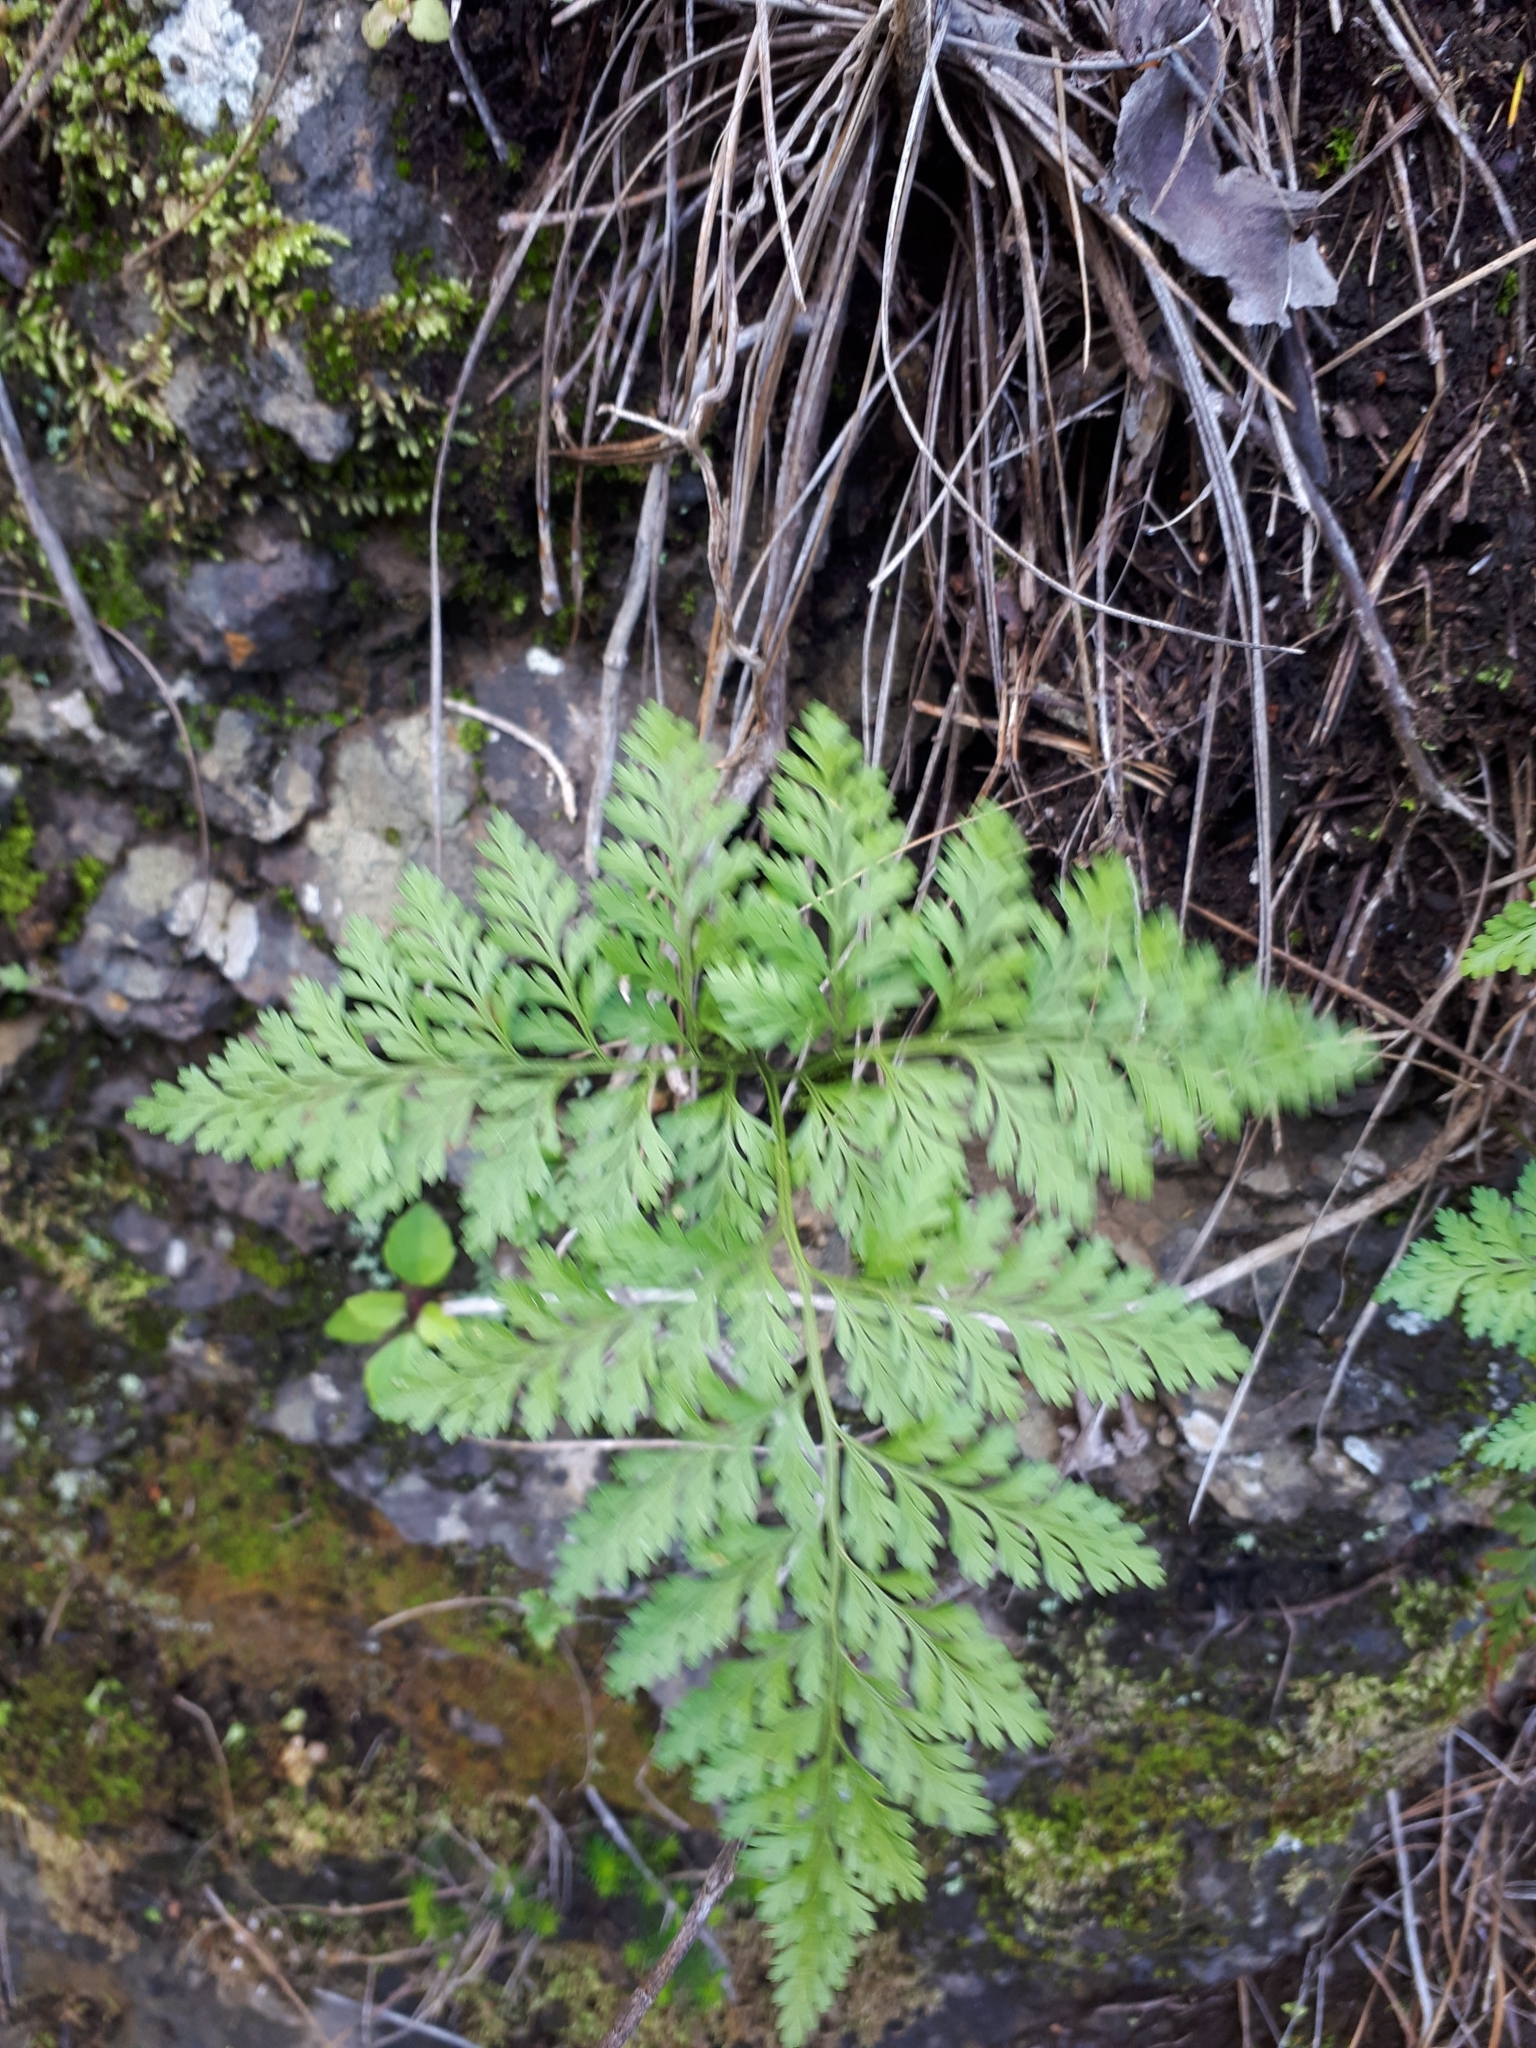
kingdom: Plantae
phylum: Tracheophyta
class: Polypodiopsida
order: Polypodiales
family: Davalliaceae
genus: Davallia
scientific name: Davallia canariensis
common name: Hare's-foot fern
